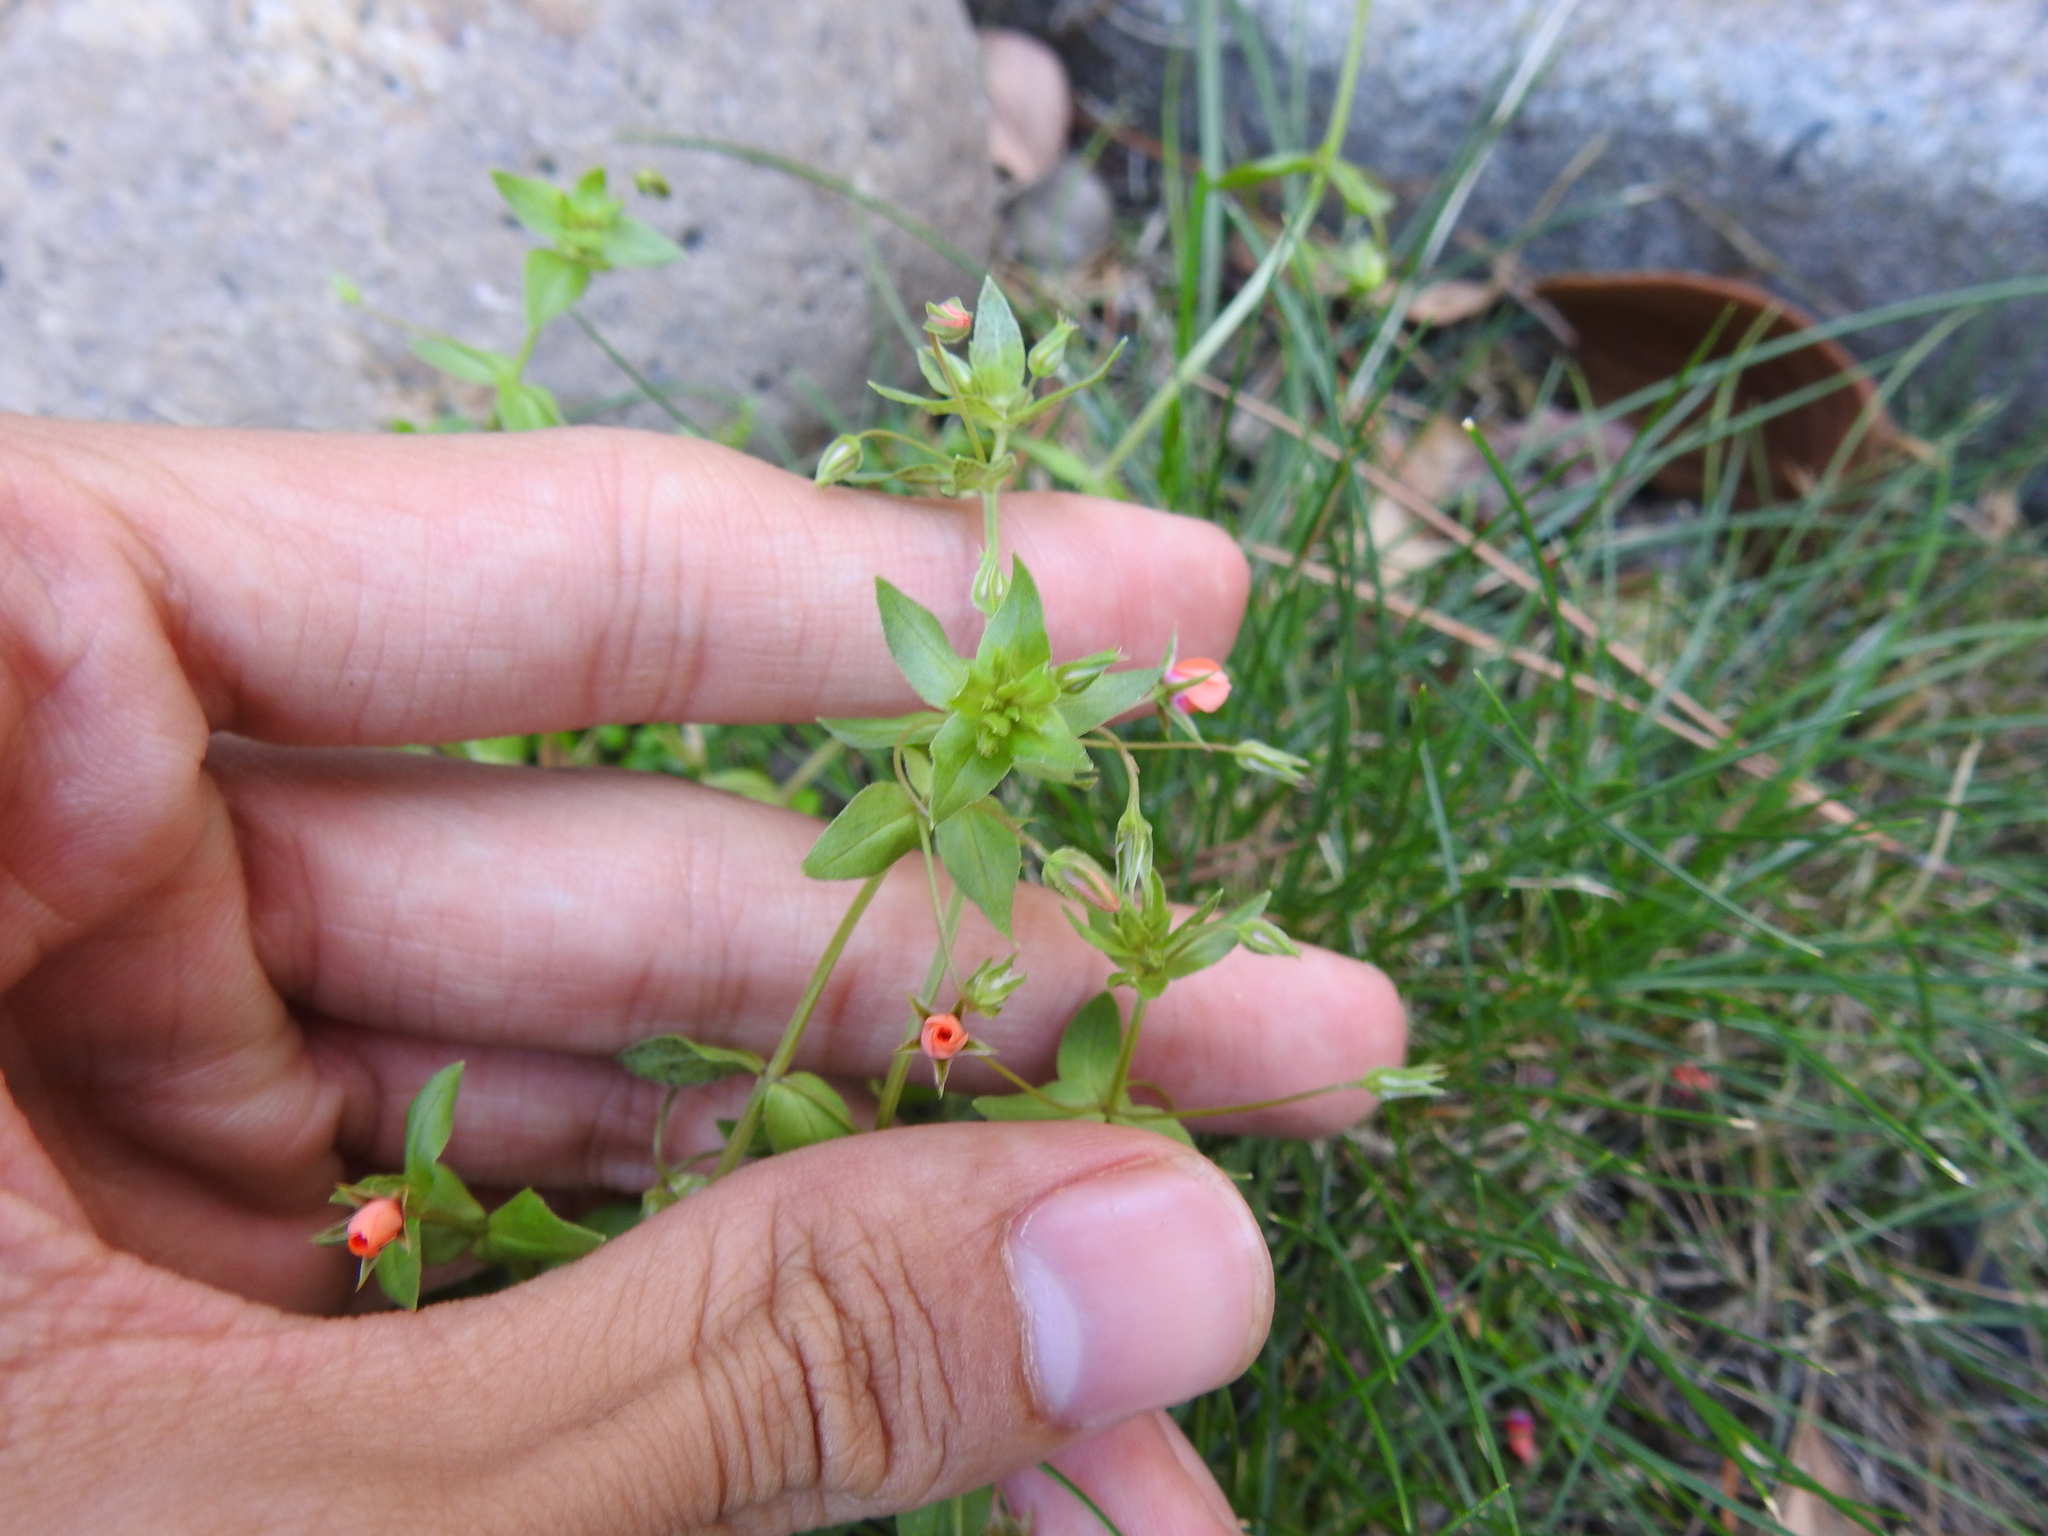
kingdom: Plantae
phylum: Tracheophyta
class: Magnoliopsida
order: Ericales
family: Primulaceae
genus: Lysimachia
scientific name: Lysimachia arvensis
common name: Scarlet pimpernel
